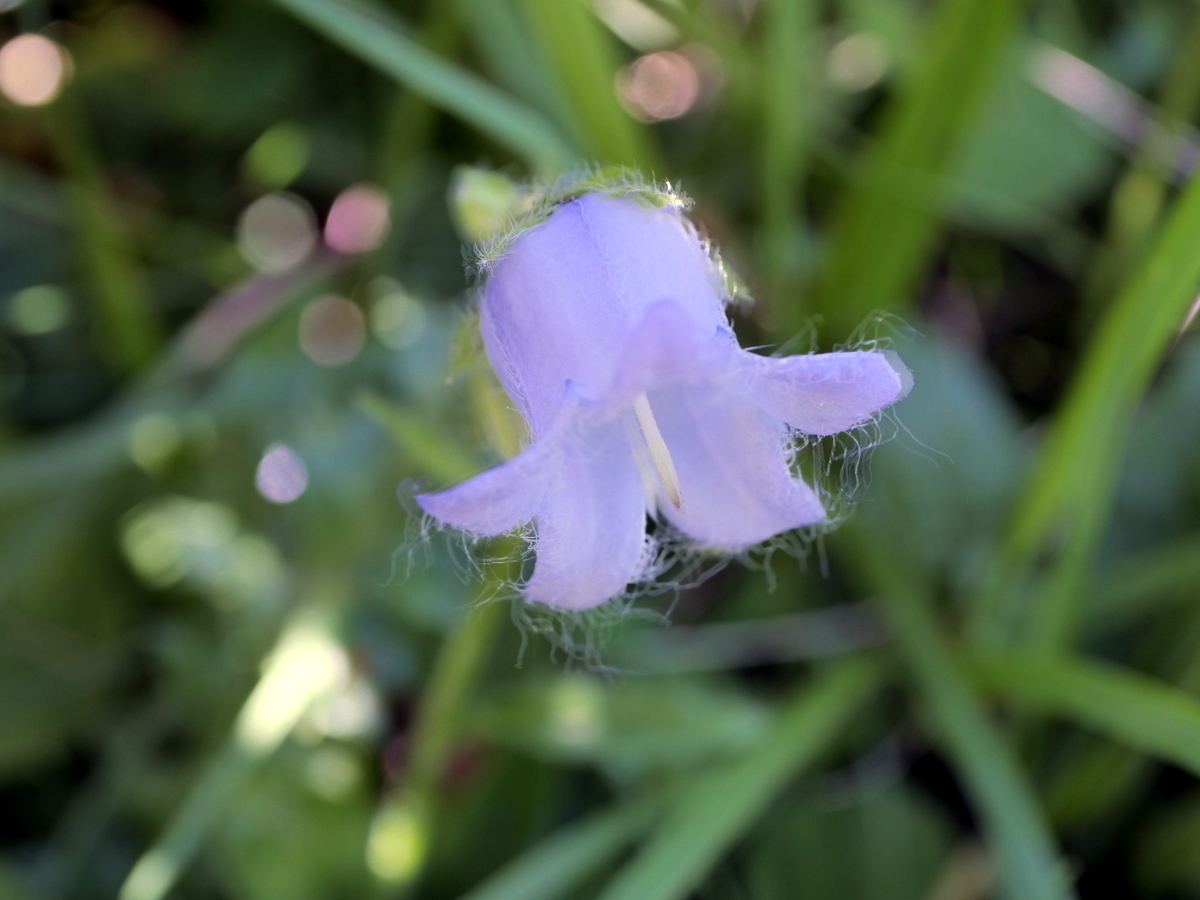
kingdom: Plantae
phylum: Tracheophyta
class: Magnoliopsida
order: Asterales
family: Campanulaceae
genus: Campanula
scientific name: Campanula barbata
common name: Bearded bellflower
